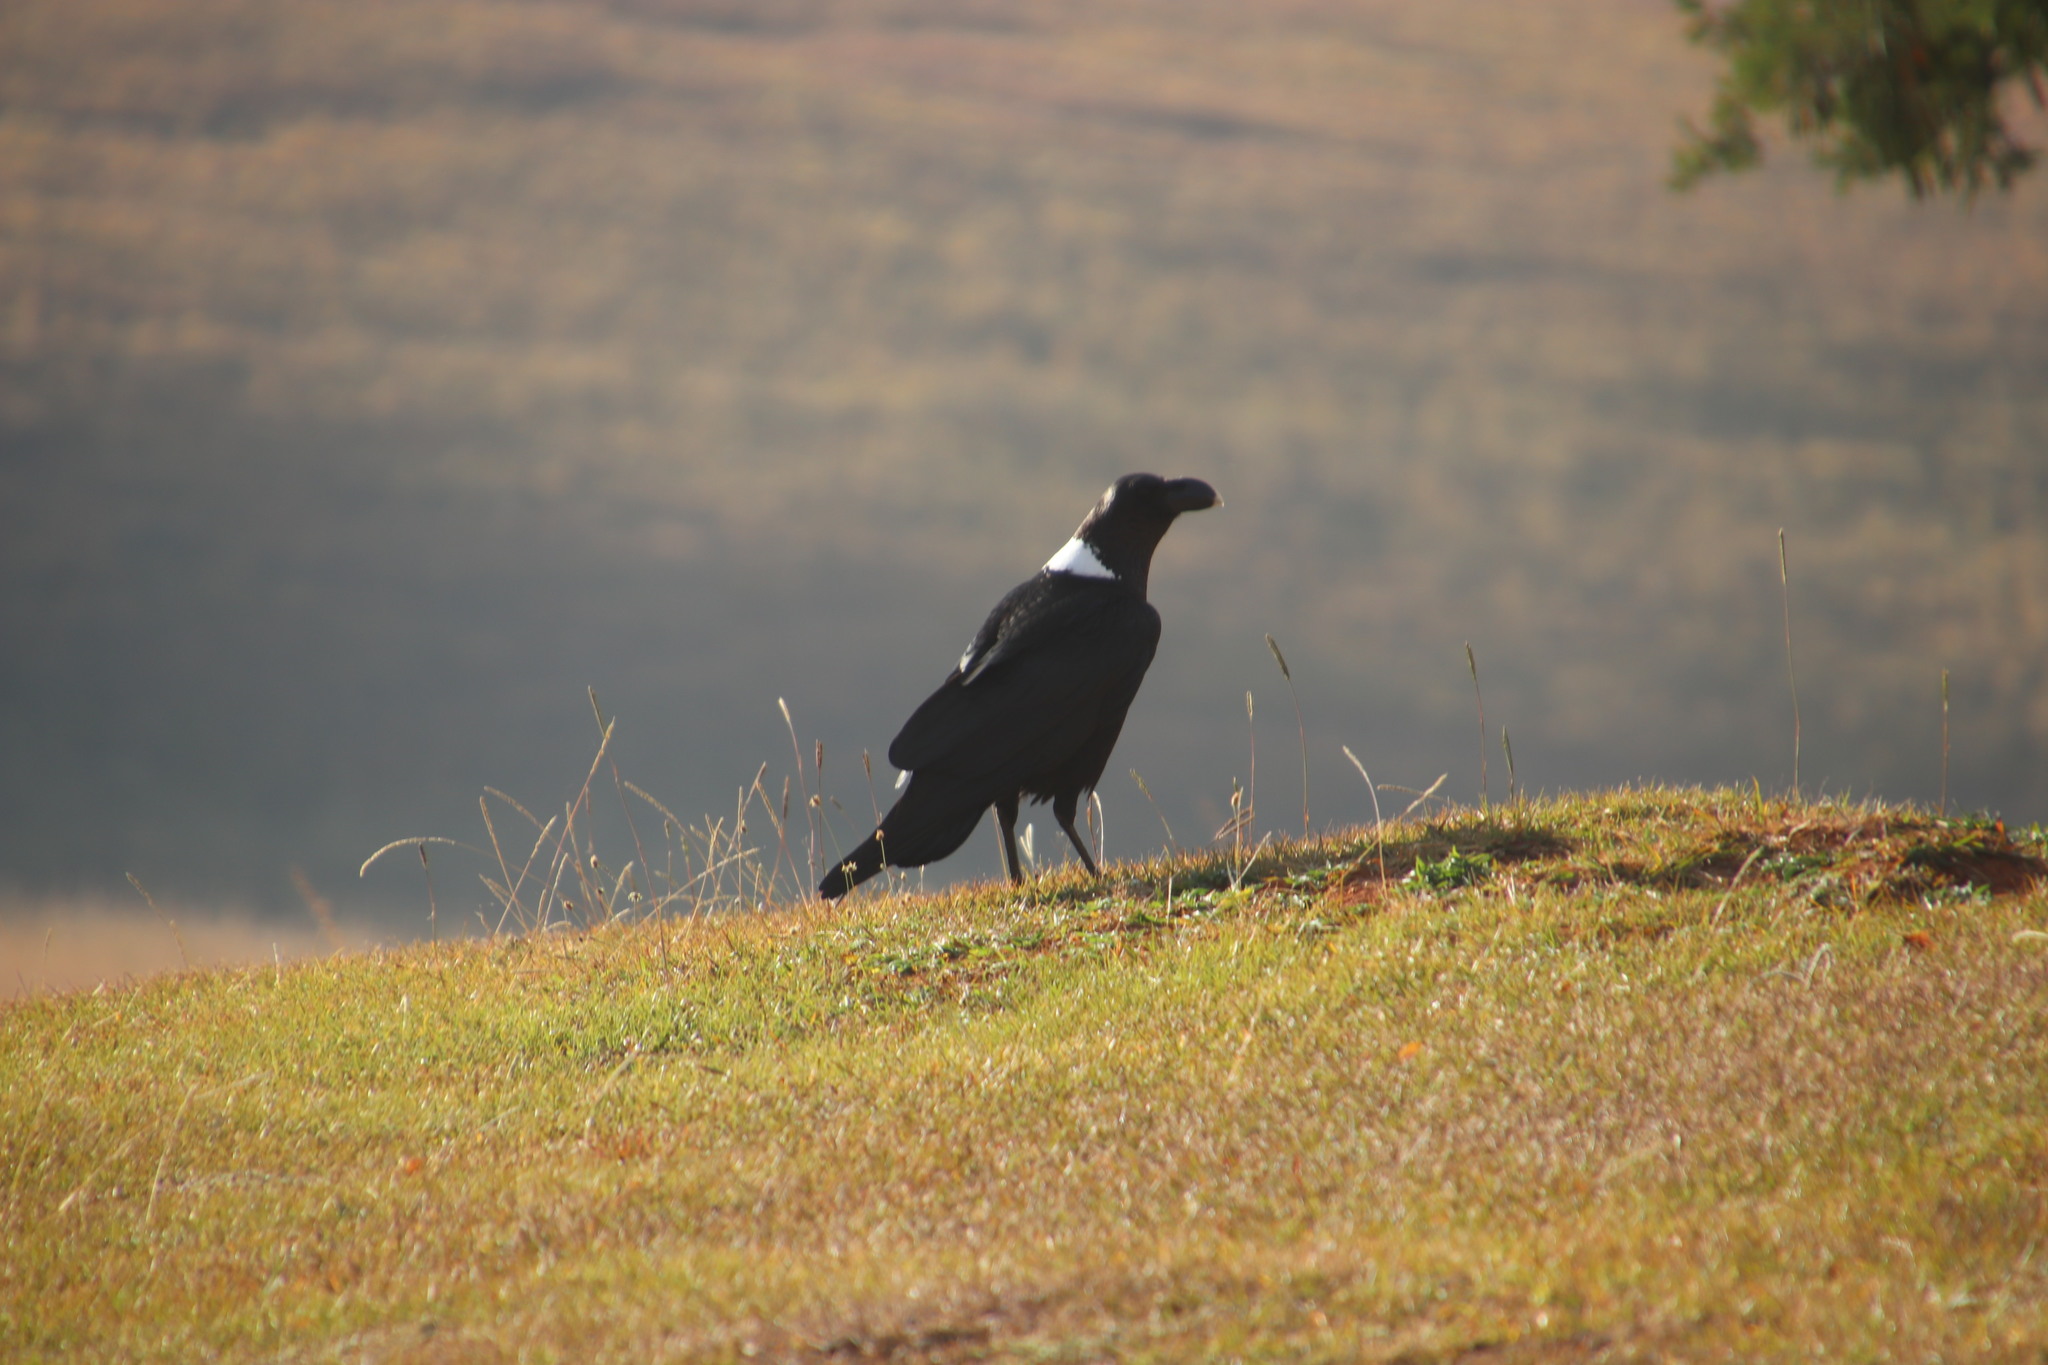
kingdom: Animalia
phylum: Chordata
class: Aves
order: Passeriformes
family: Corvidae
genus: Corvus
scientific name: Corvus albicollis
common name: White-necked raven
